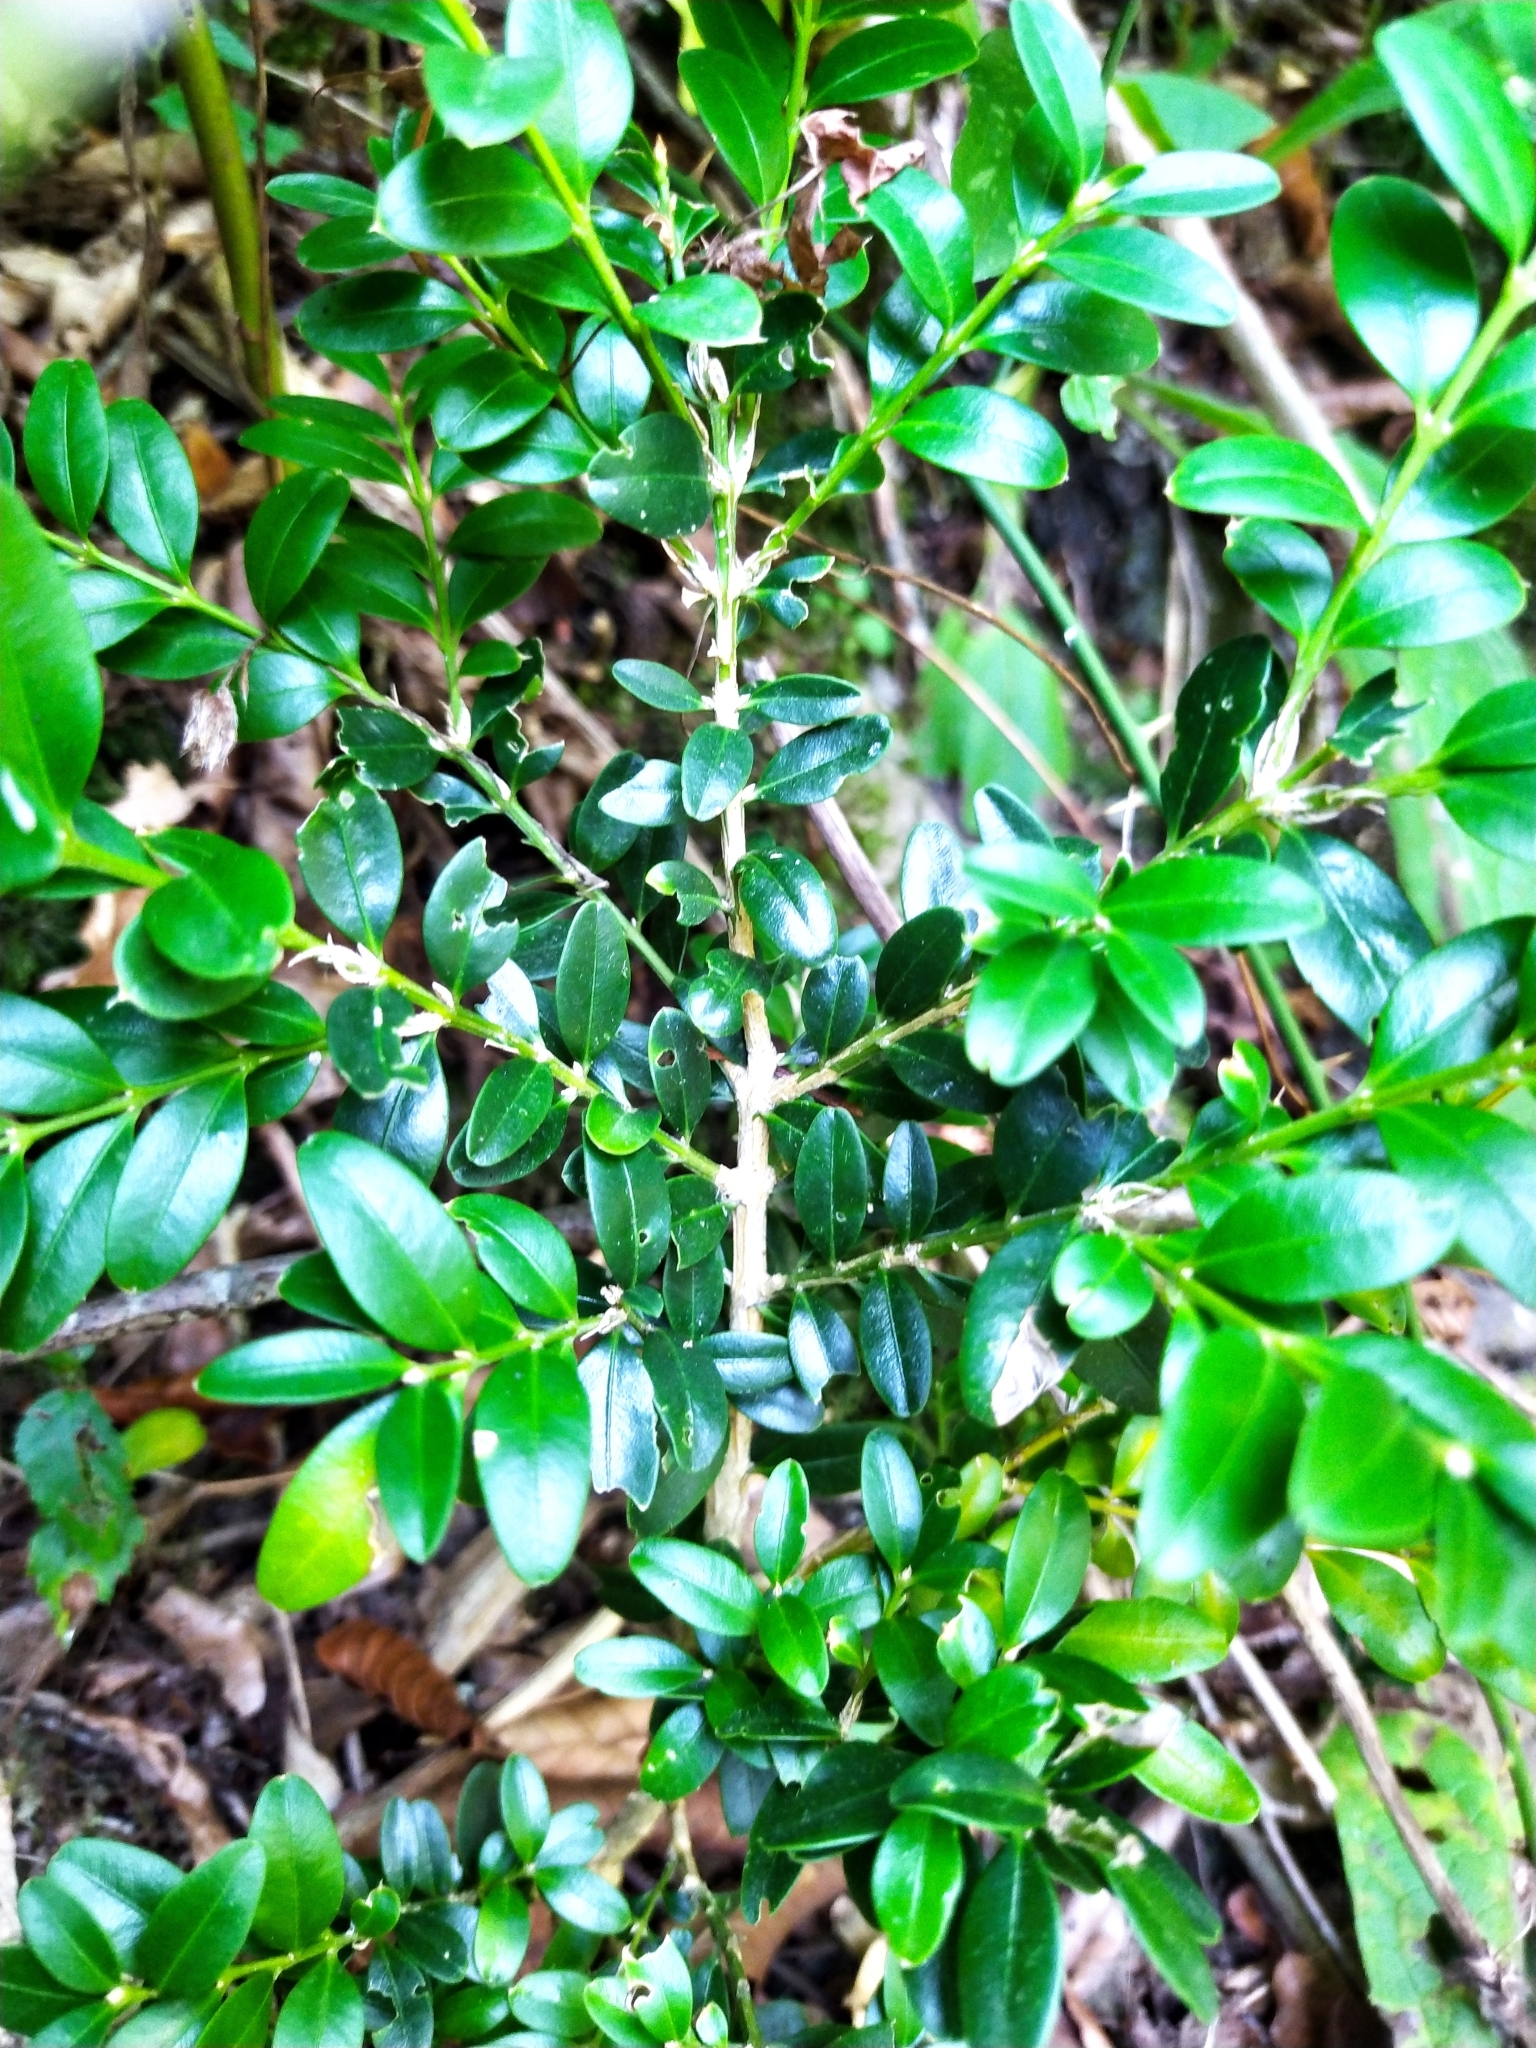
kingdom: Plantae
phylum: Tracheophyta
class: Magnoliopsida
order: Buxales
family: Buxaceae
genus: Buxus
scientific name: Buxus sempervirens
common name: Box
